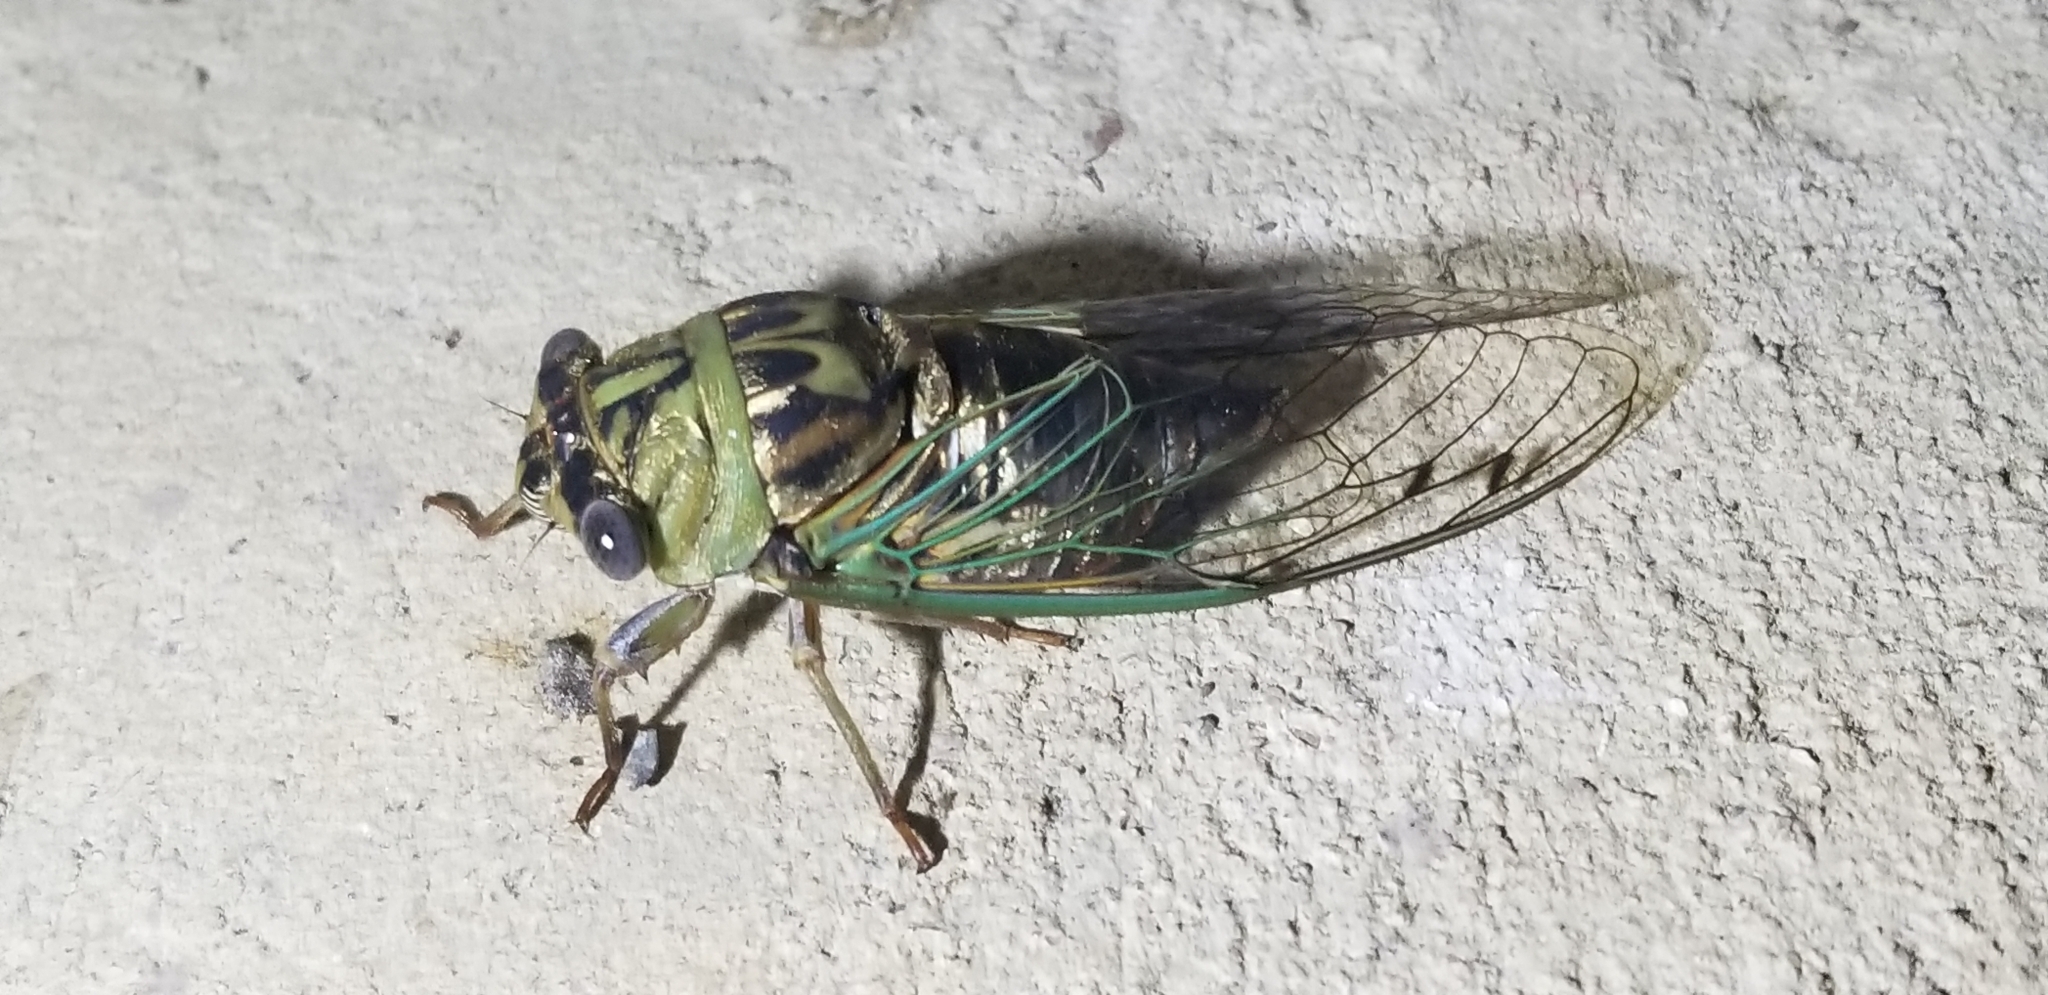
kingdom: Animalia
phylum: Arthropoda
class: Insecta
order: Hemiptera
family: Cicadidae
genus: Megatibicen
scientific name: Megatibicen resh
